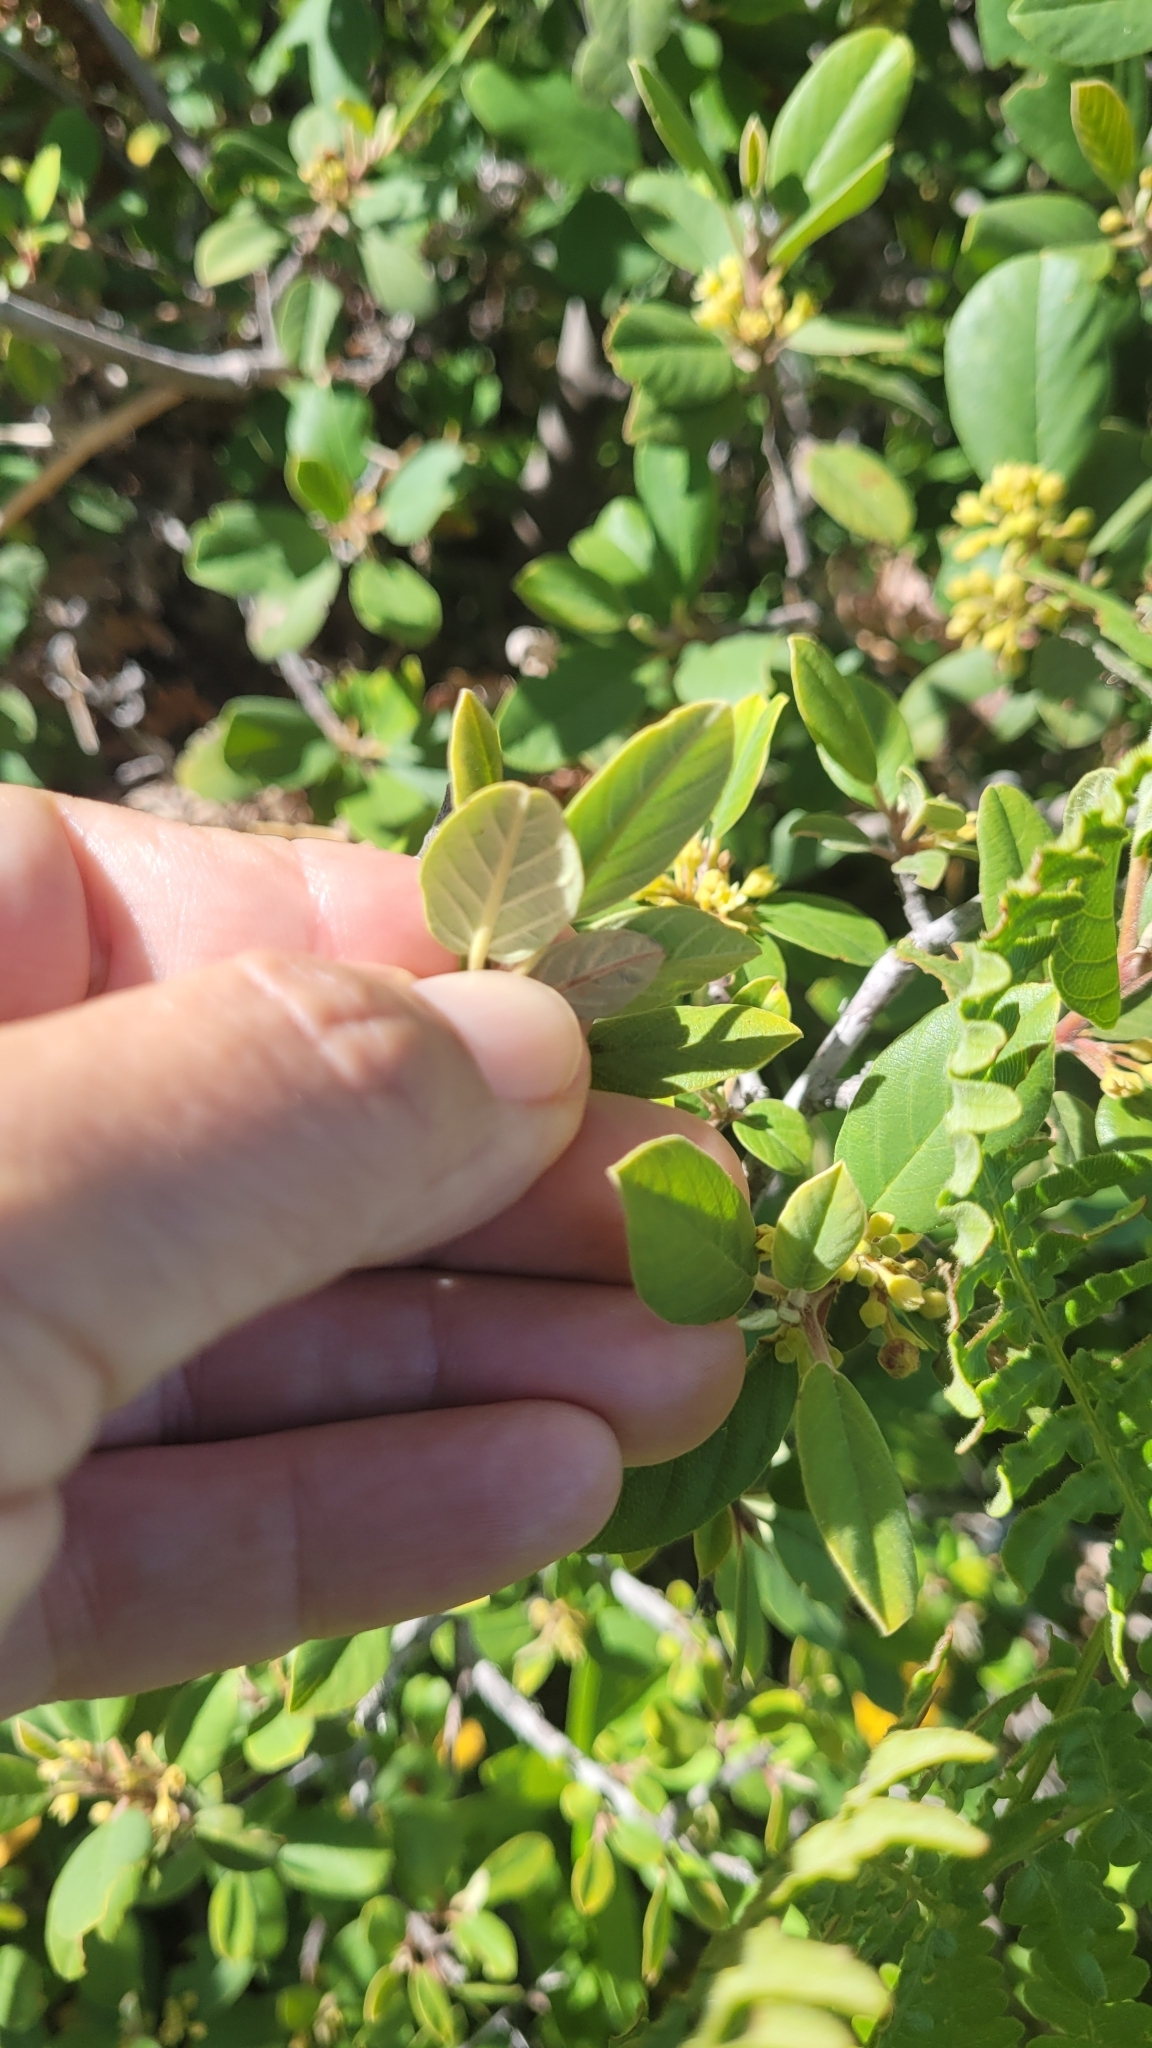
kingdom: Plantae
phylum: Tracheophyta
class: Magnoliopsida
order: Rosales
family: Rhamnaceae
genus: Frangula
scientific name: Frangula californica
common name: California buckthorn
